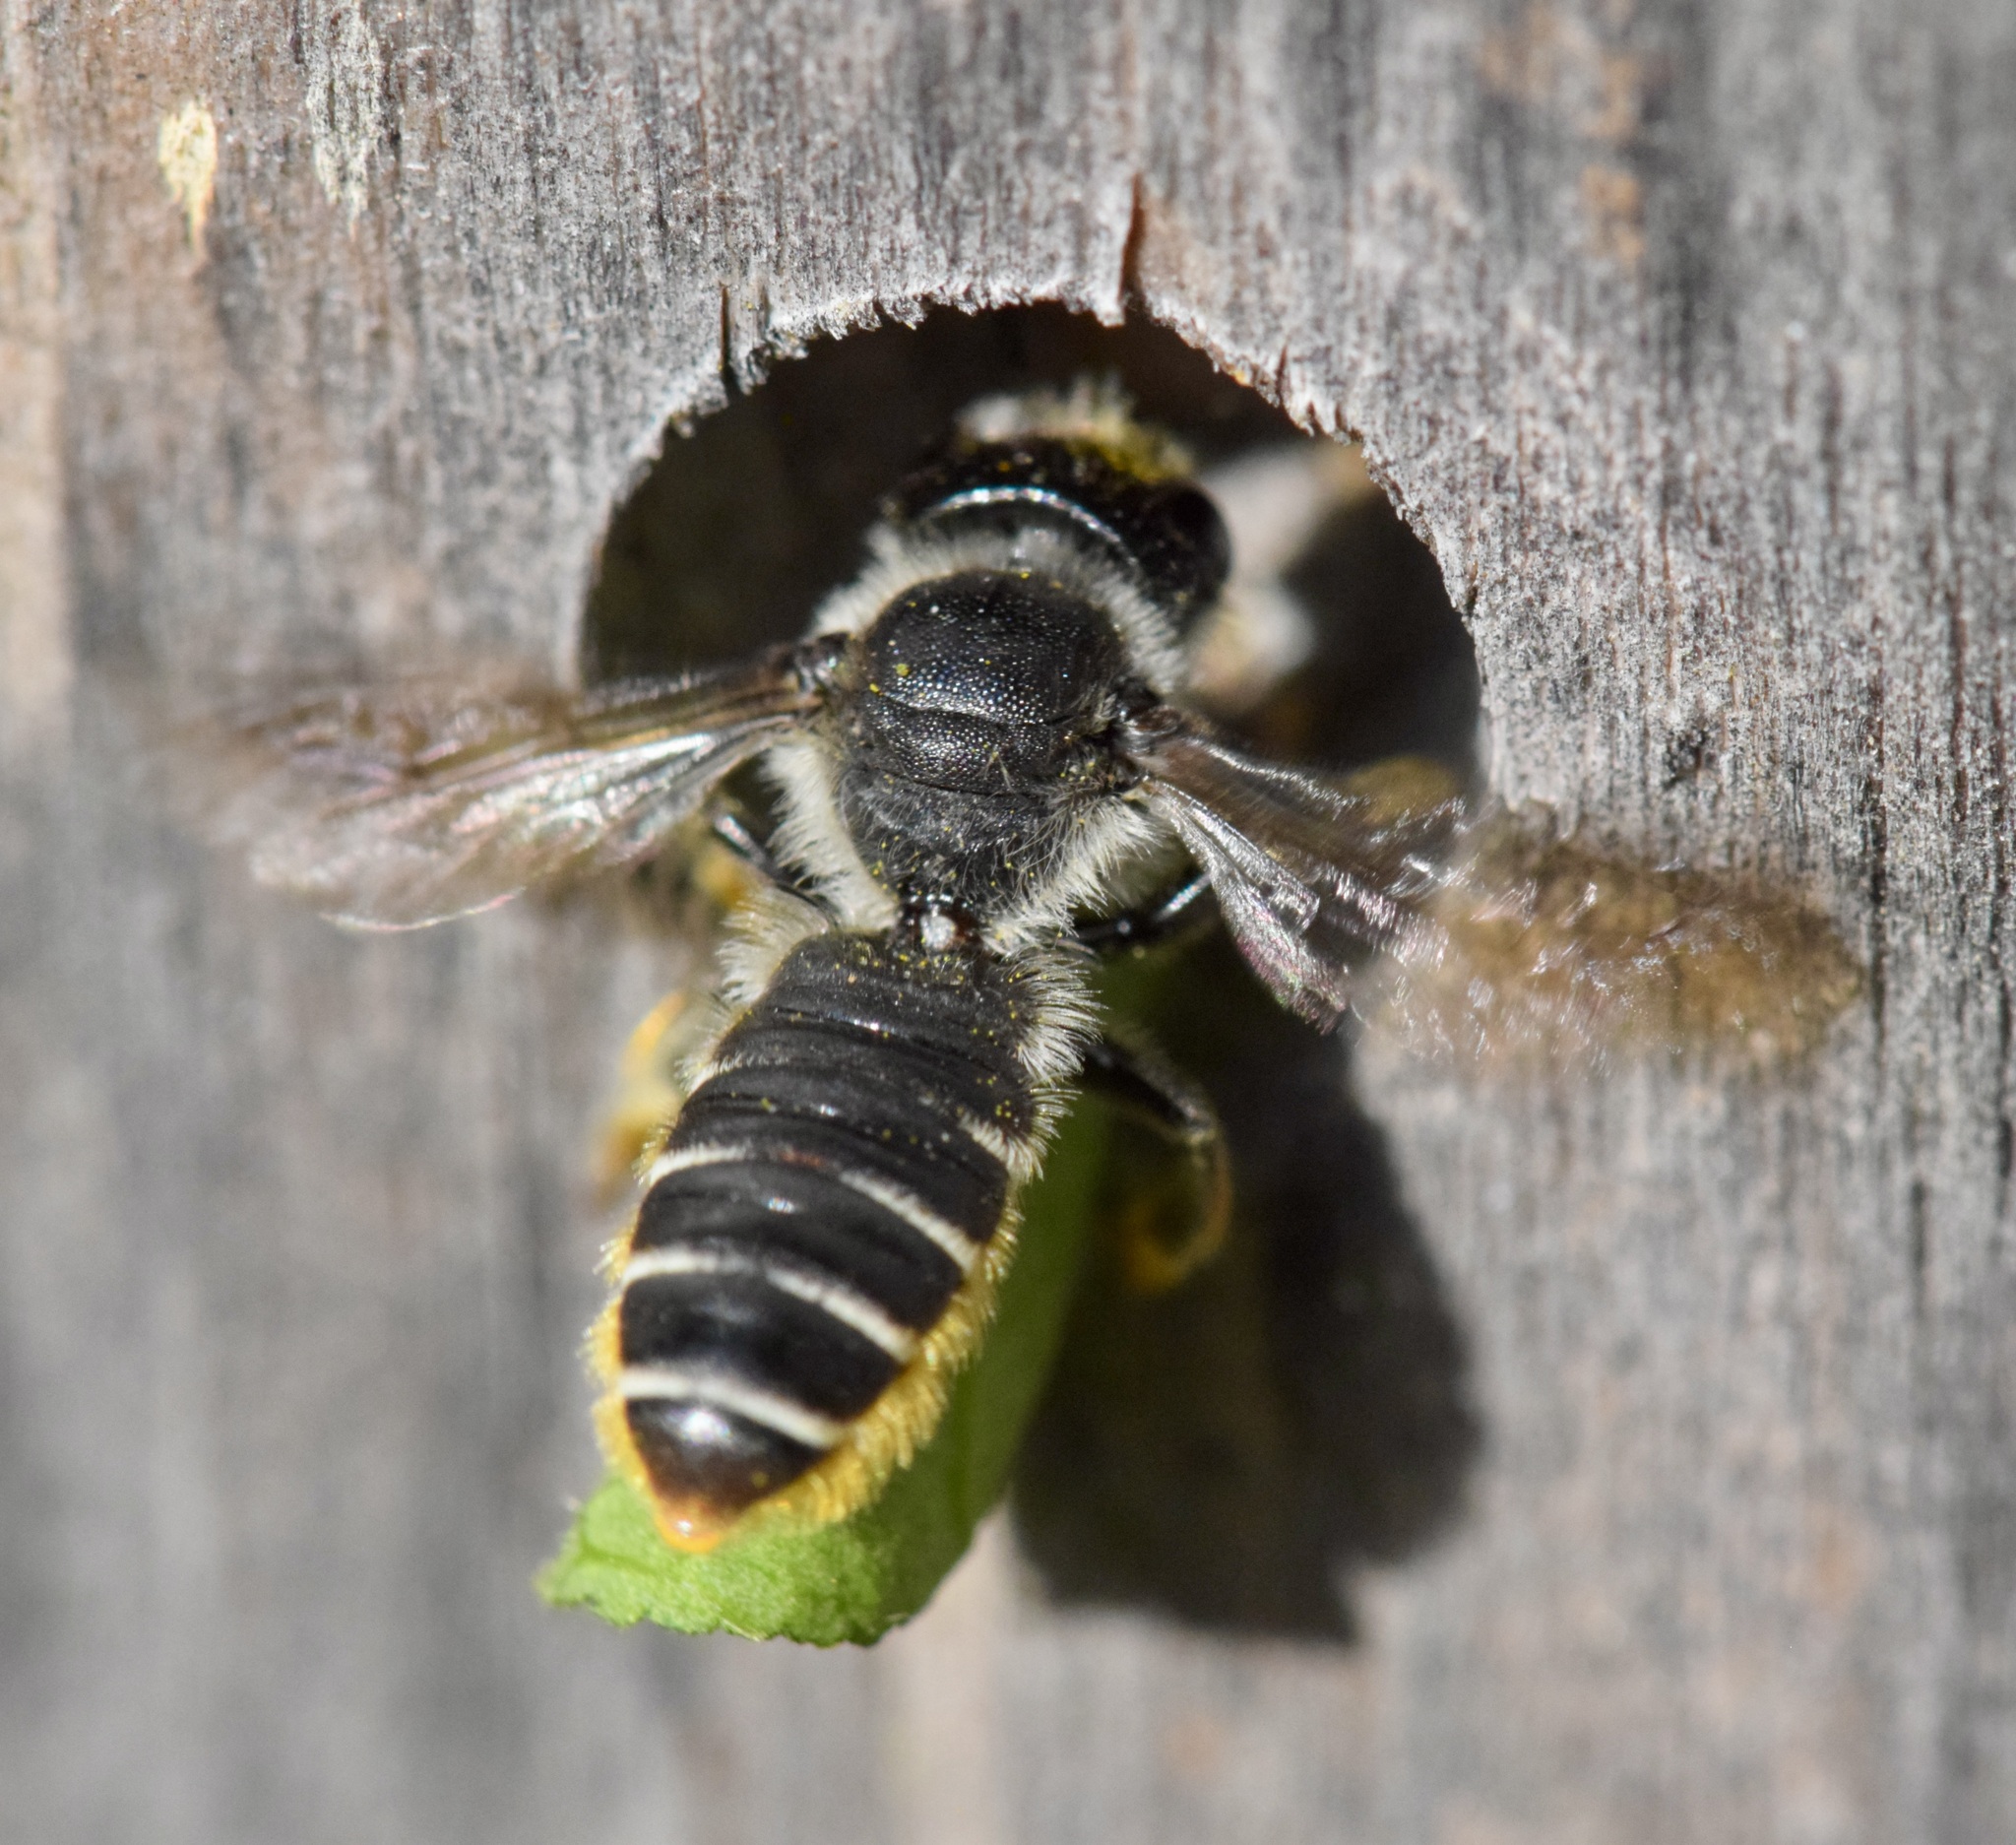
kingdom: Animalia
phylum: Arthropoda
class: Insecta
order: Hymenoptera
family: Megachilidae
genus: Megachile
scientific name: Megachile relativa
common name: Golden-tailed leafcutter
